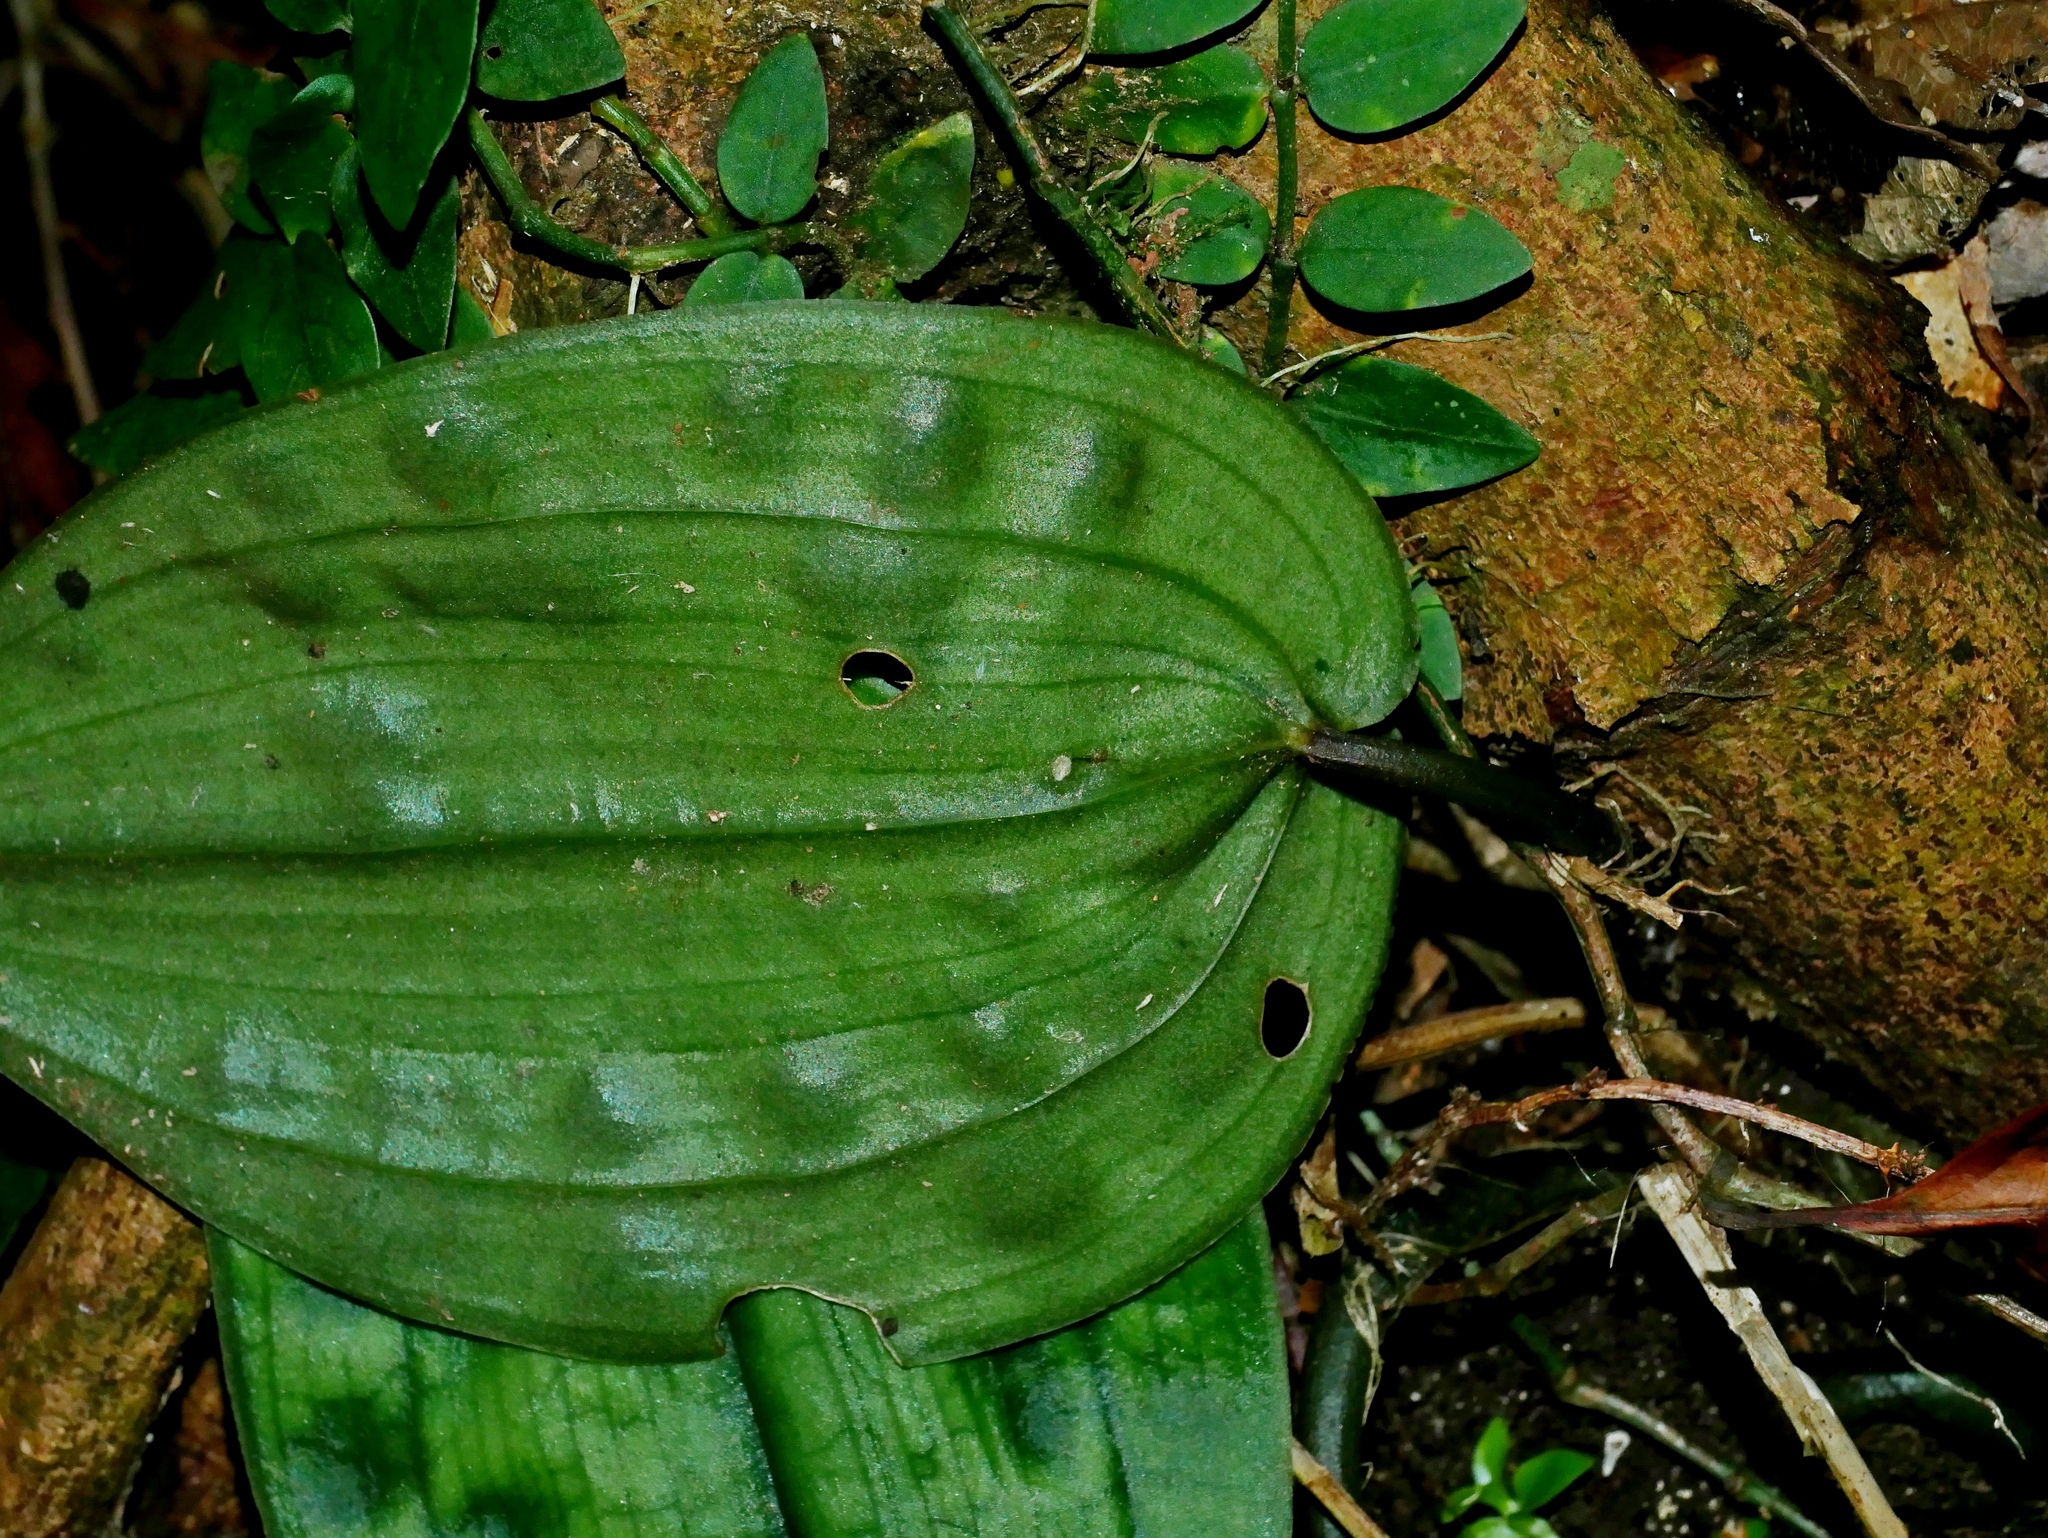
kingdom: Plantae
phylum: Tracheophyta
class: Liliopsida
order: Asparagales
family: Orchidaceae
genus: Tainia
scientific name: Tainia cordifolia
